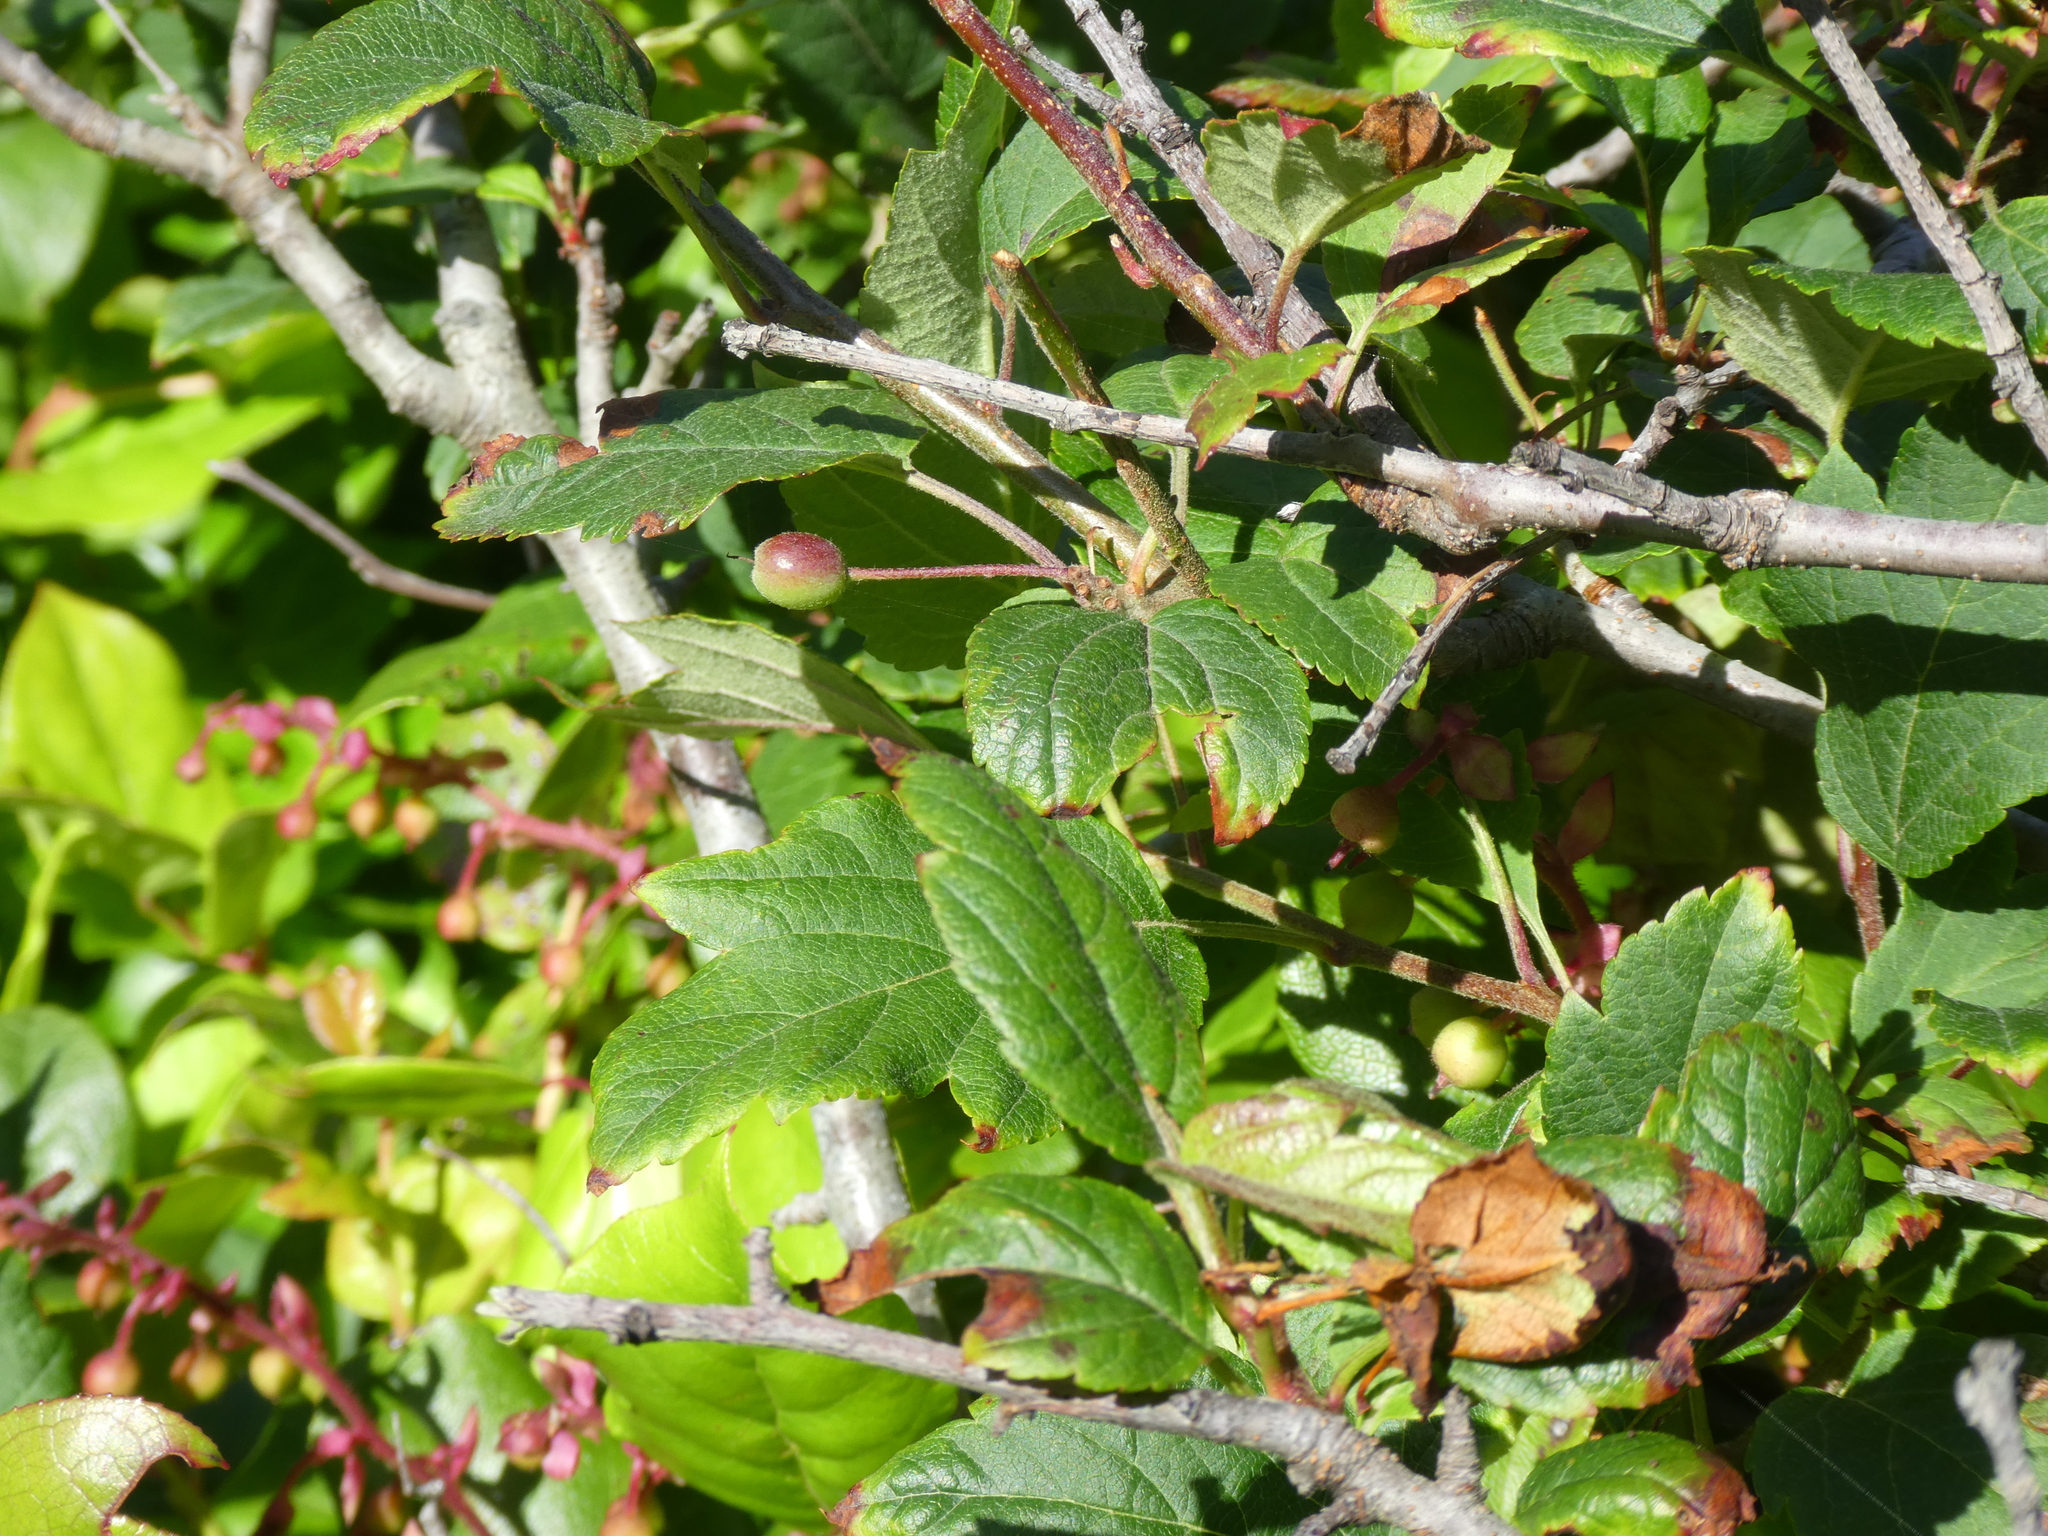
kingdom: Plantae
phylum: Tracheophyta
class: Magnoliopsida
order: Rosales
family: Rosaceae
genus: Malus
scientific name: Malus fusca
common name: Oregon crab apple
